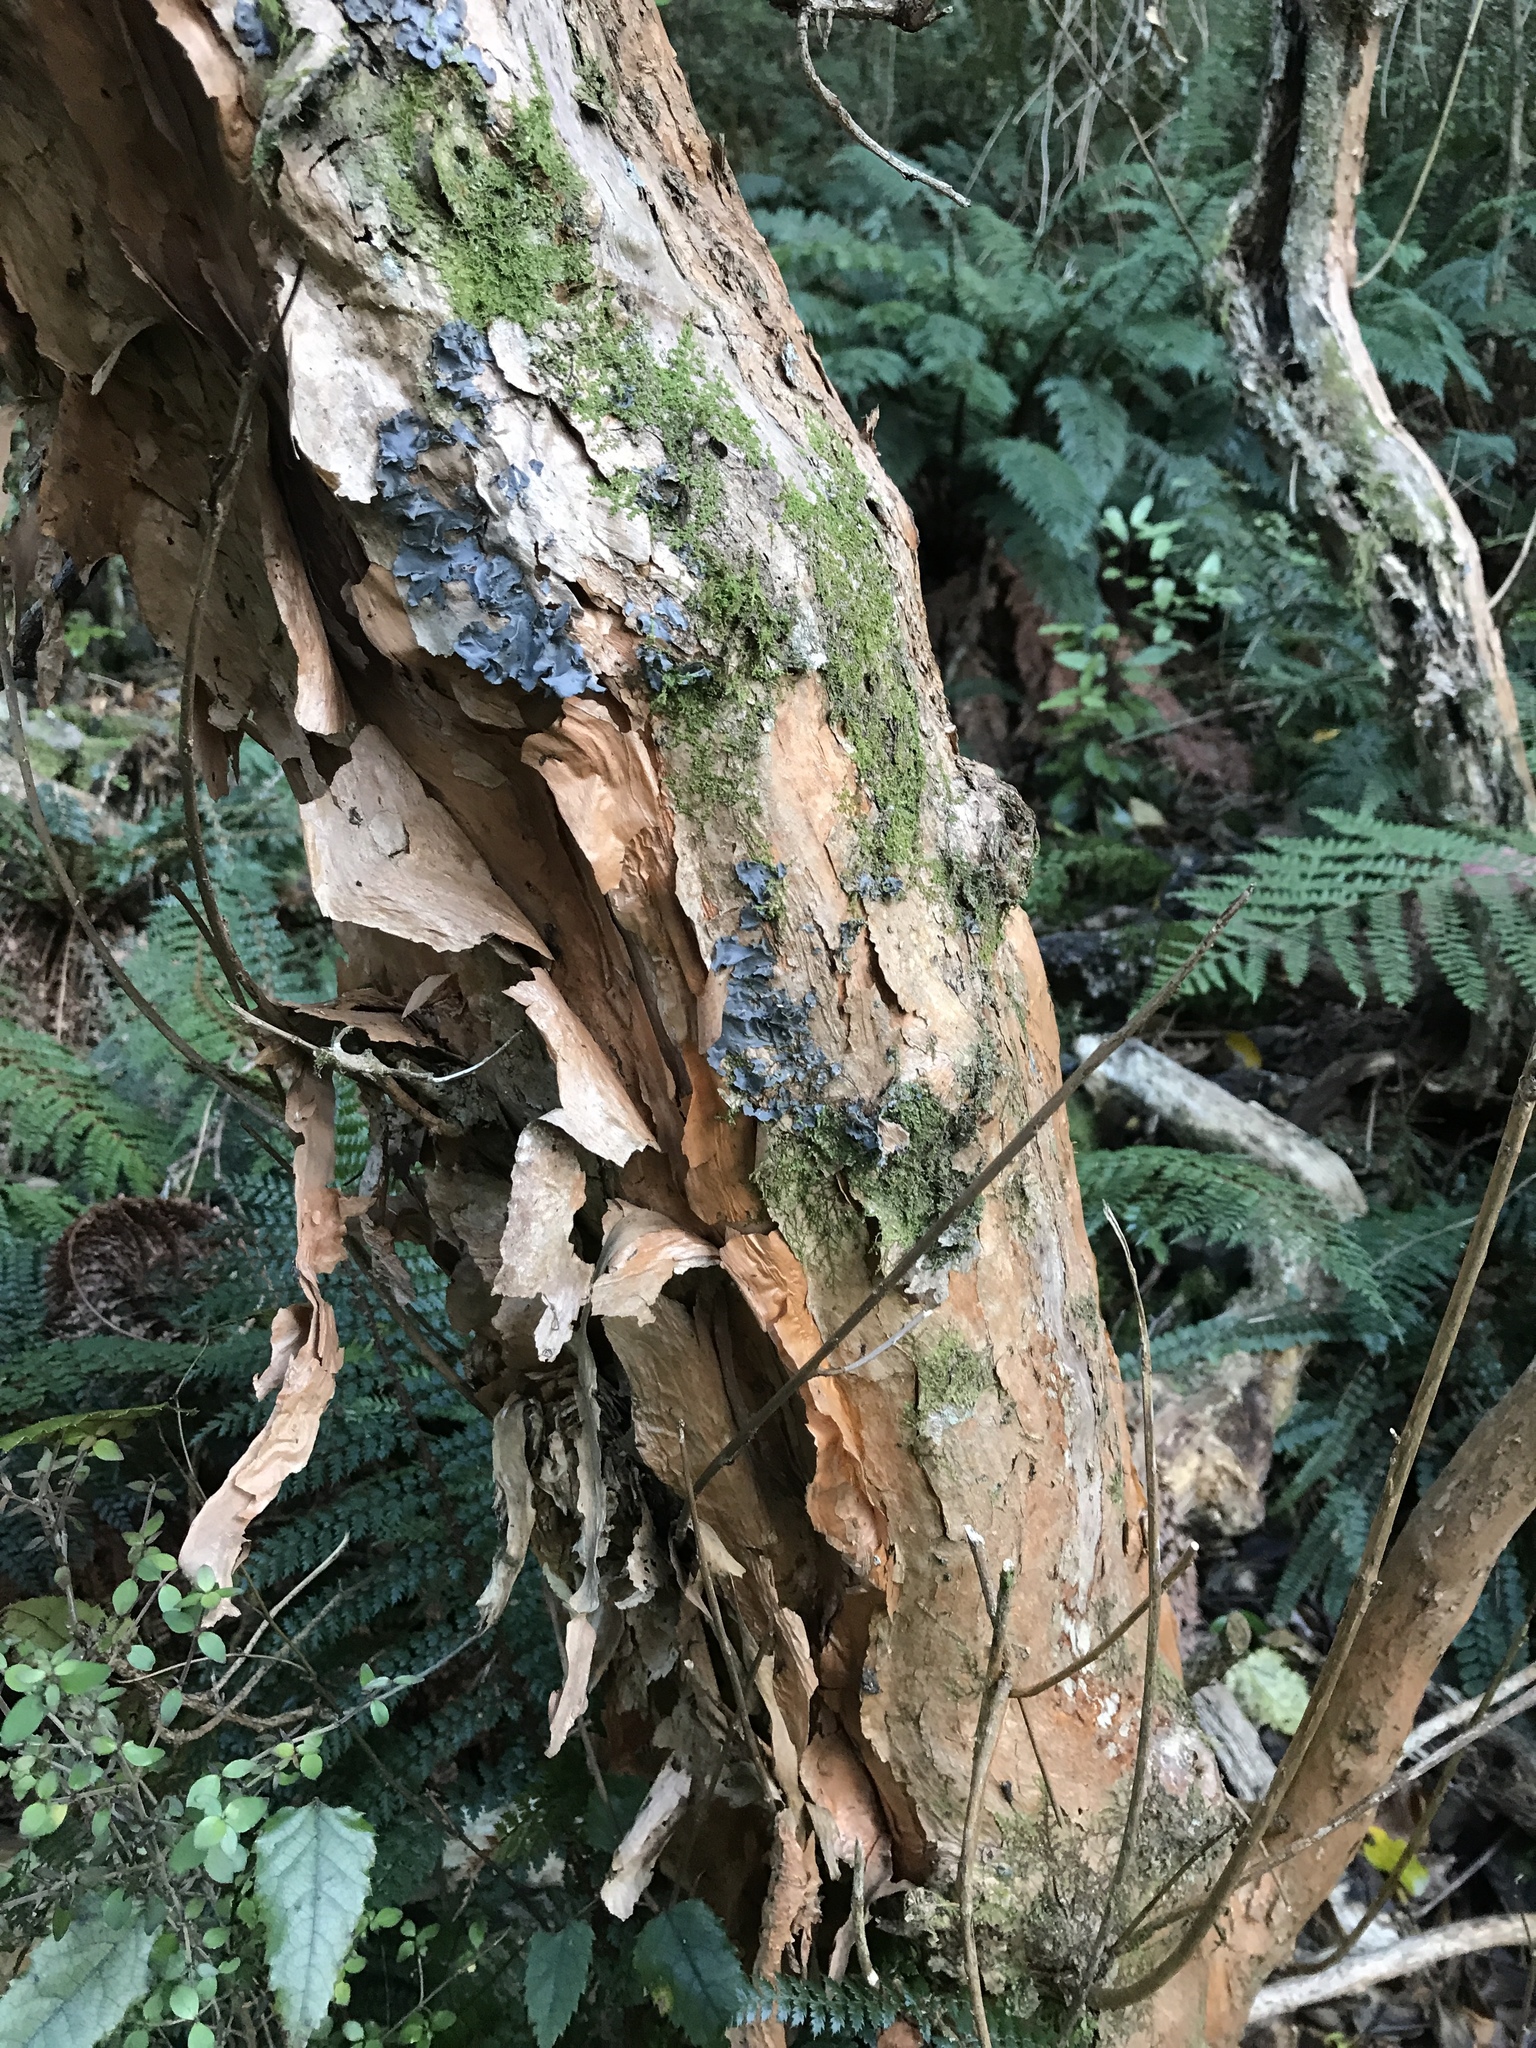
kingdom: Plantae
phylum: Tracheophyta
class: Magnoliopsida
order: Myrtales
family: Onagraceae
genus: Fuchsia
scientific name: Fuchsia excorticata
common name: Tree fuchsia
